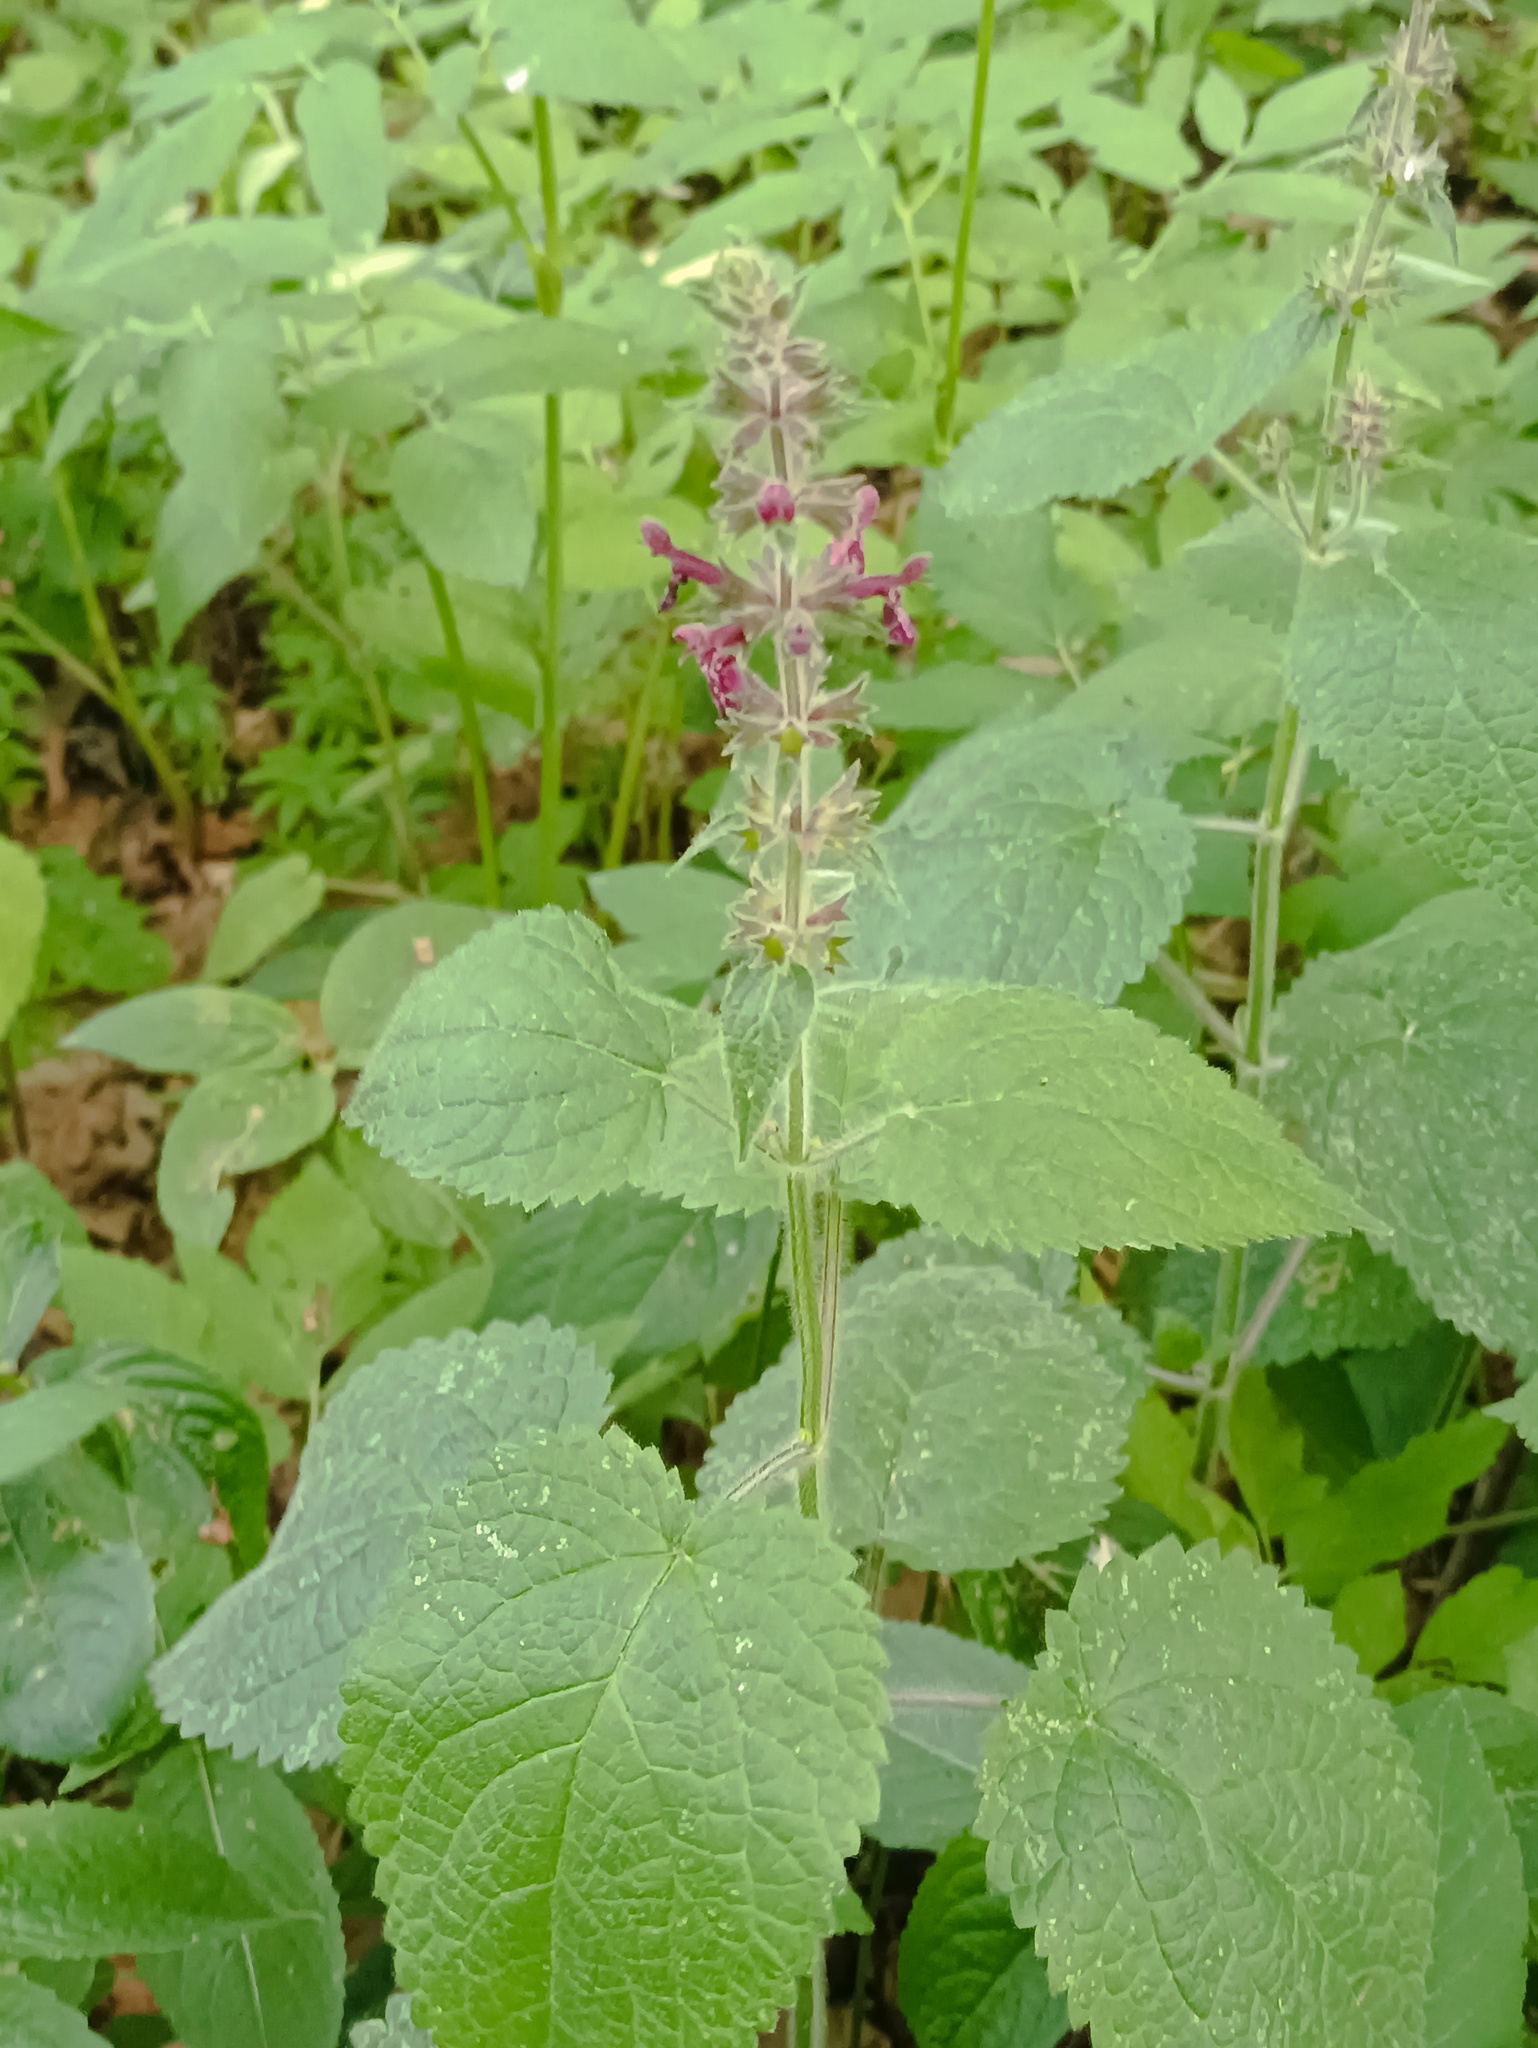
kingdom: Plantae
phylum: Tracheophyta
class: Magnoliopsida
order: Lamiales
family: Lamiaceae
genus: Stachys
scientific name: Stachys sylvatica
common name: Hedge woundwort
